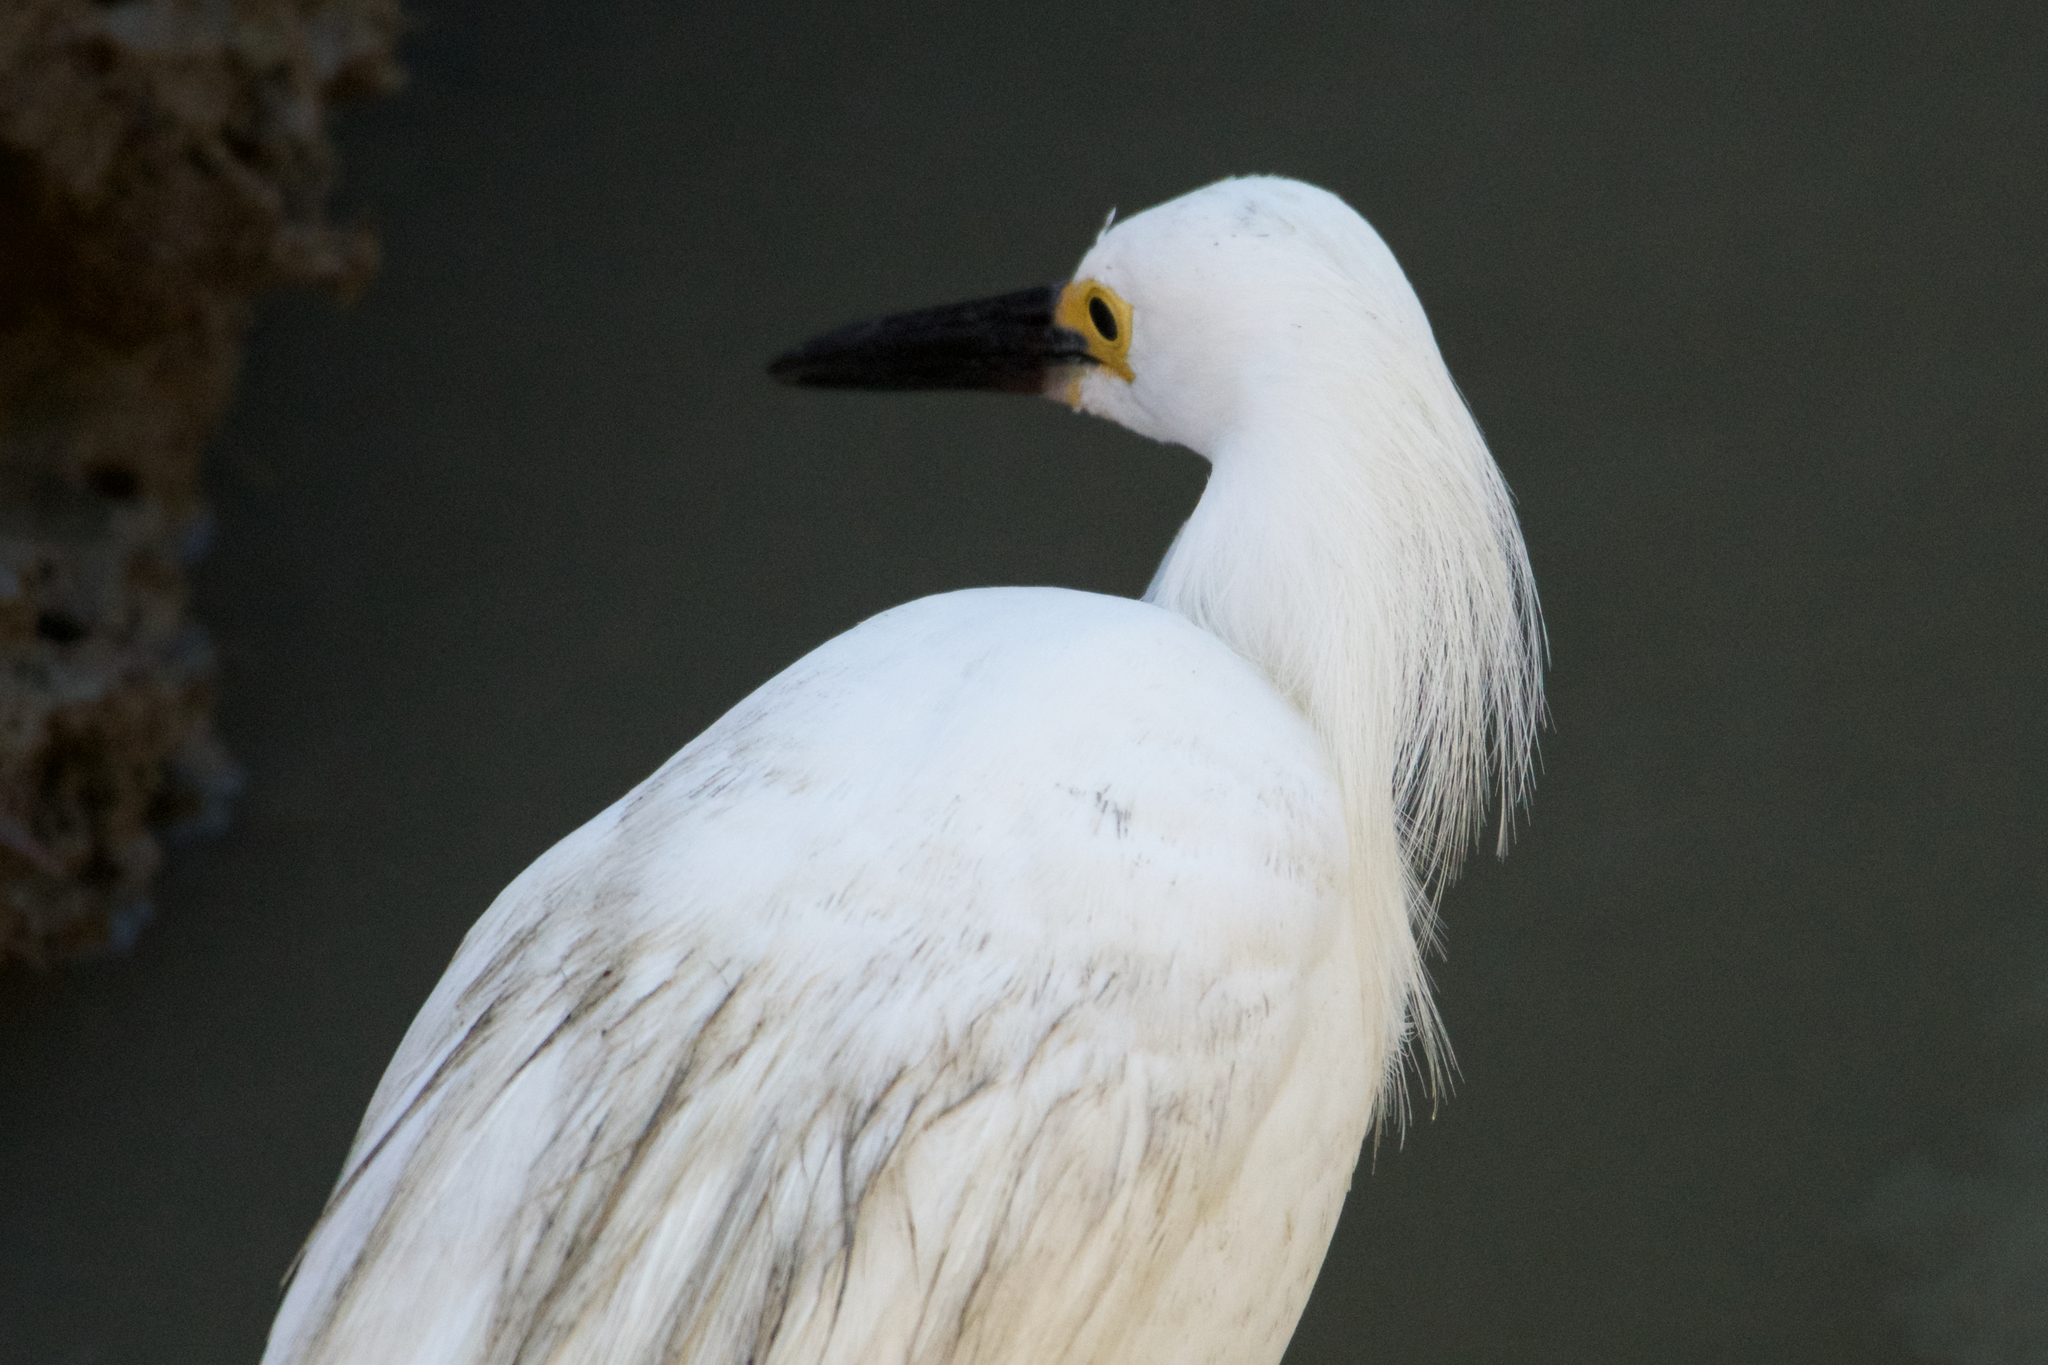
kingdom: Animalia
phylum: Chordata
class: Aves
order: Pelecaniformes
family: Ardeidae
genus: Egretta
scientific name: Egretta thula
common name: Snowy egret
